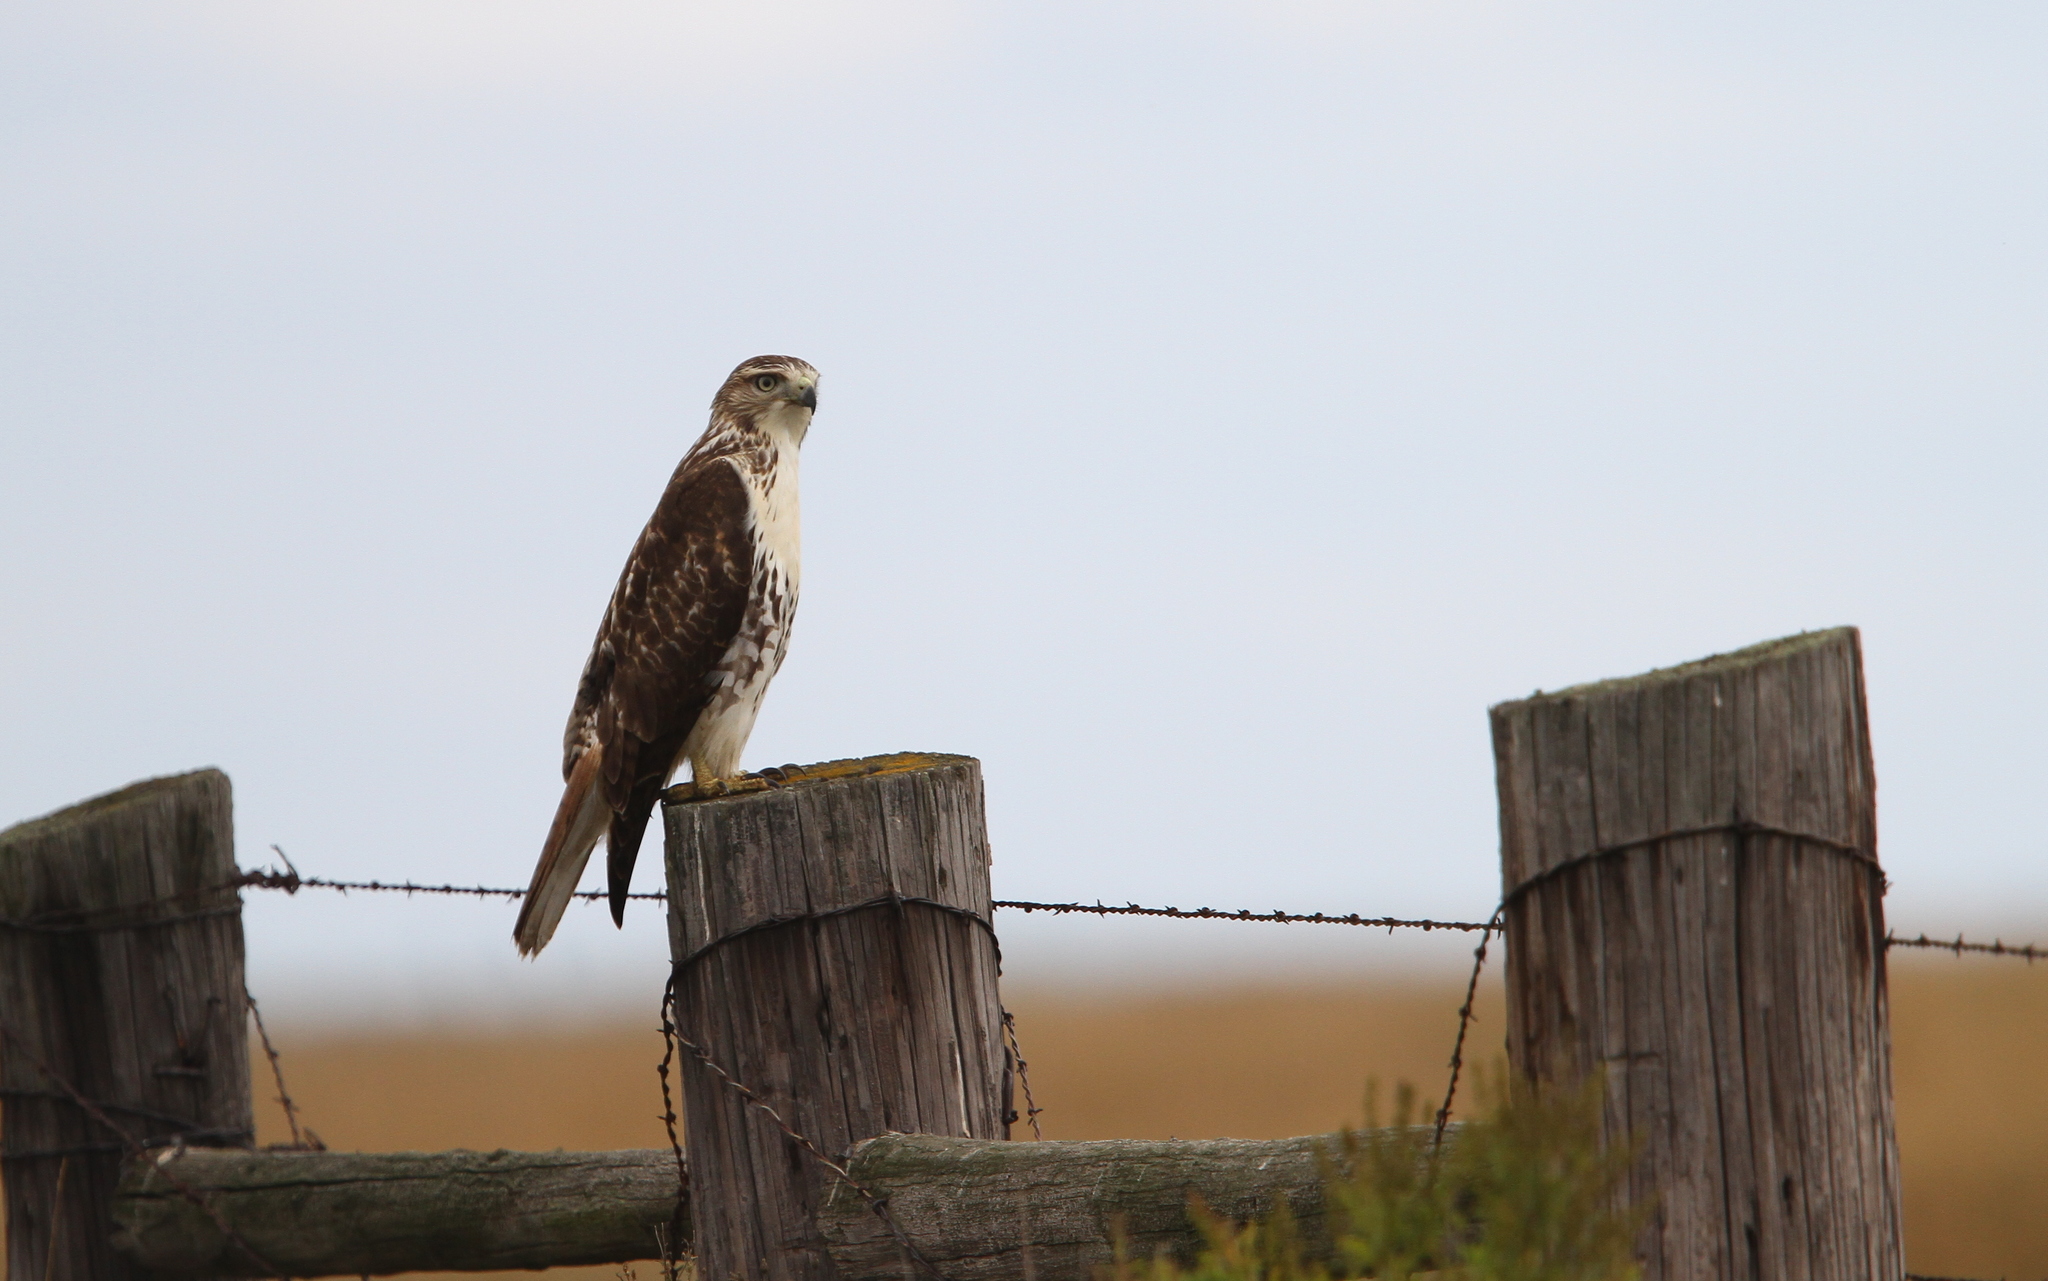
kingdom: Animalia
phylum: Chordata
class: Aves
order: Accipitriformes
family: Accipitridae
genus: Buteo
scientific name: Buteo jamaicensis
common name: Red-tailed hawk
